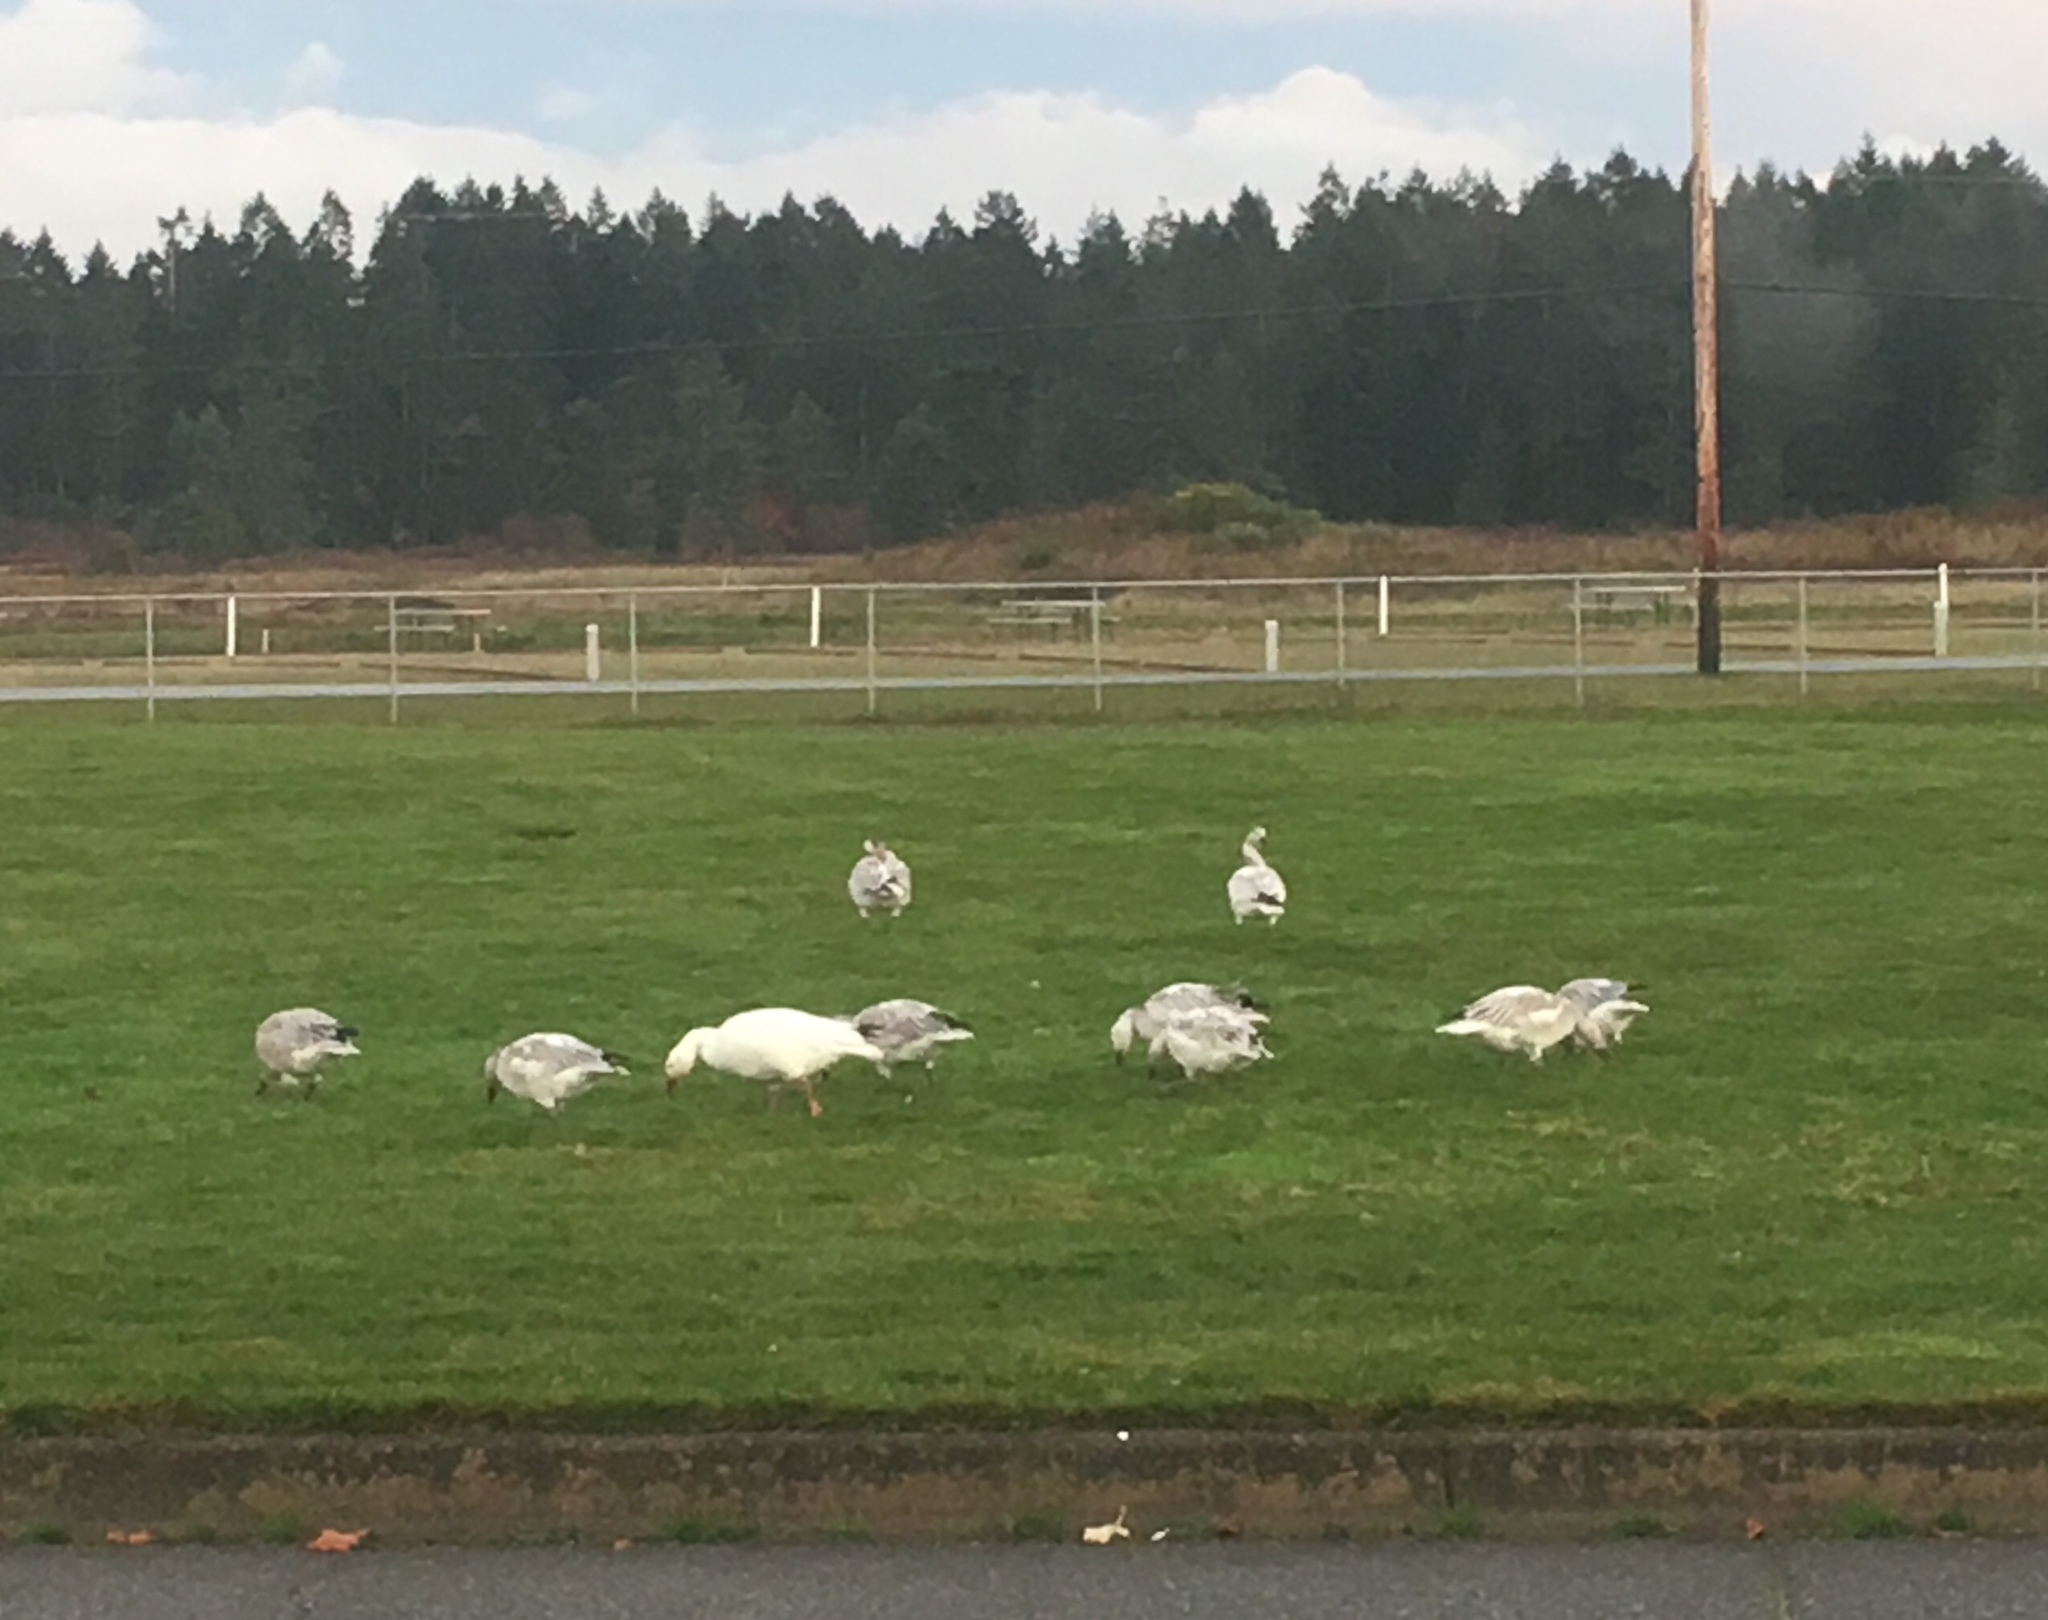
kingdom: Animalia
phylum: Chordata
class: Aves
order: Anseriformes
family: Anatidae
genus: Anser
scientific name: Anser caerulescens
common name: Snow goose
